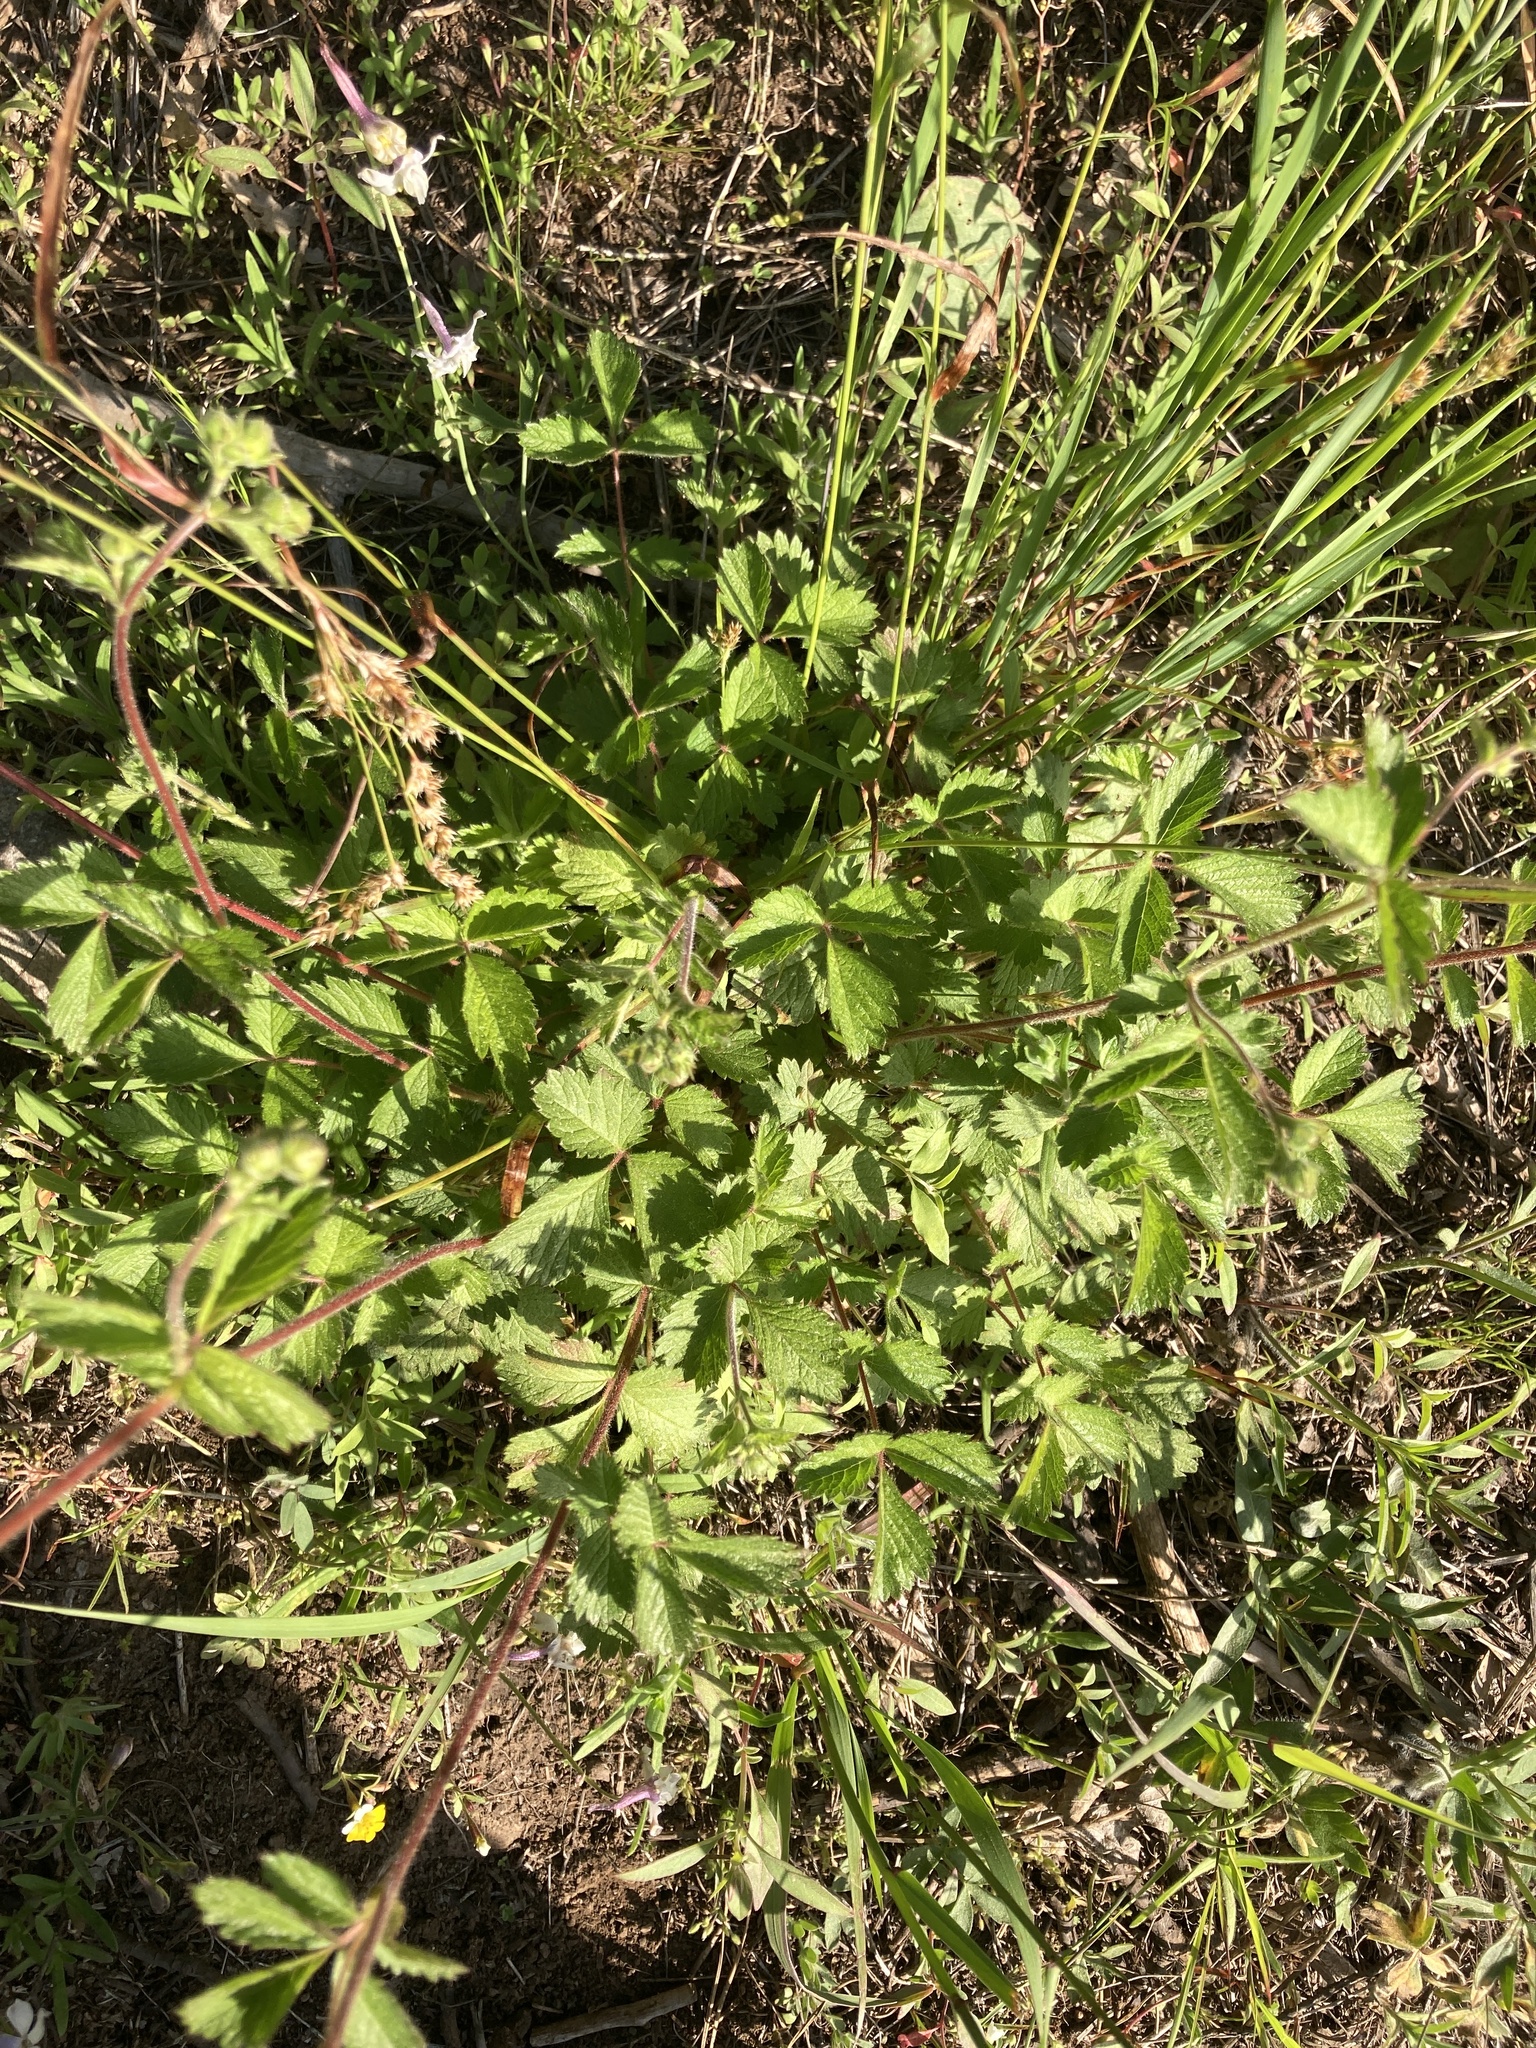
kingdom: Plantae
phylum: Tracheophyta
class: Magnoliopsida
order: Rosales
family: Rosaceae
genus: Drymocallis
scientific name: Drymocallis glandulosa
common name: Sticky cinquefoil
